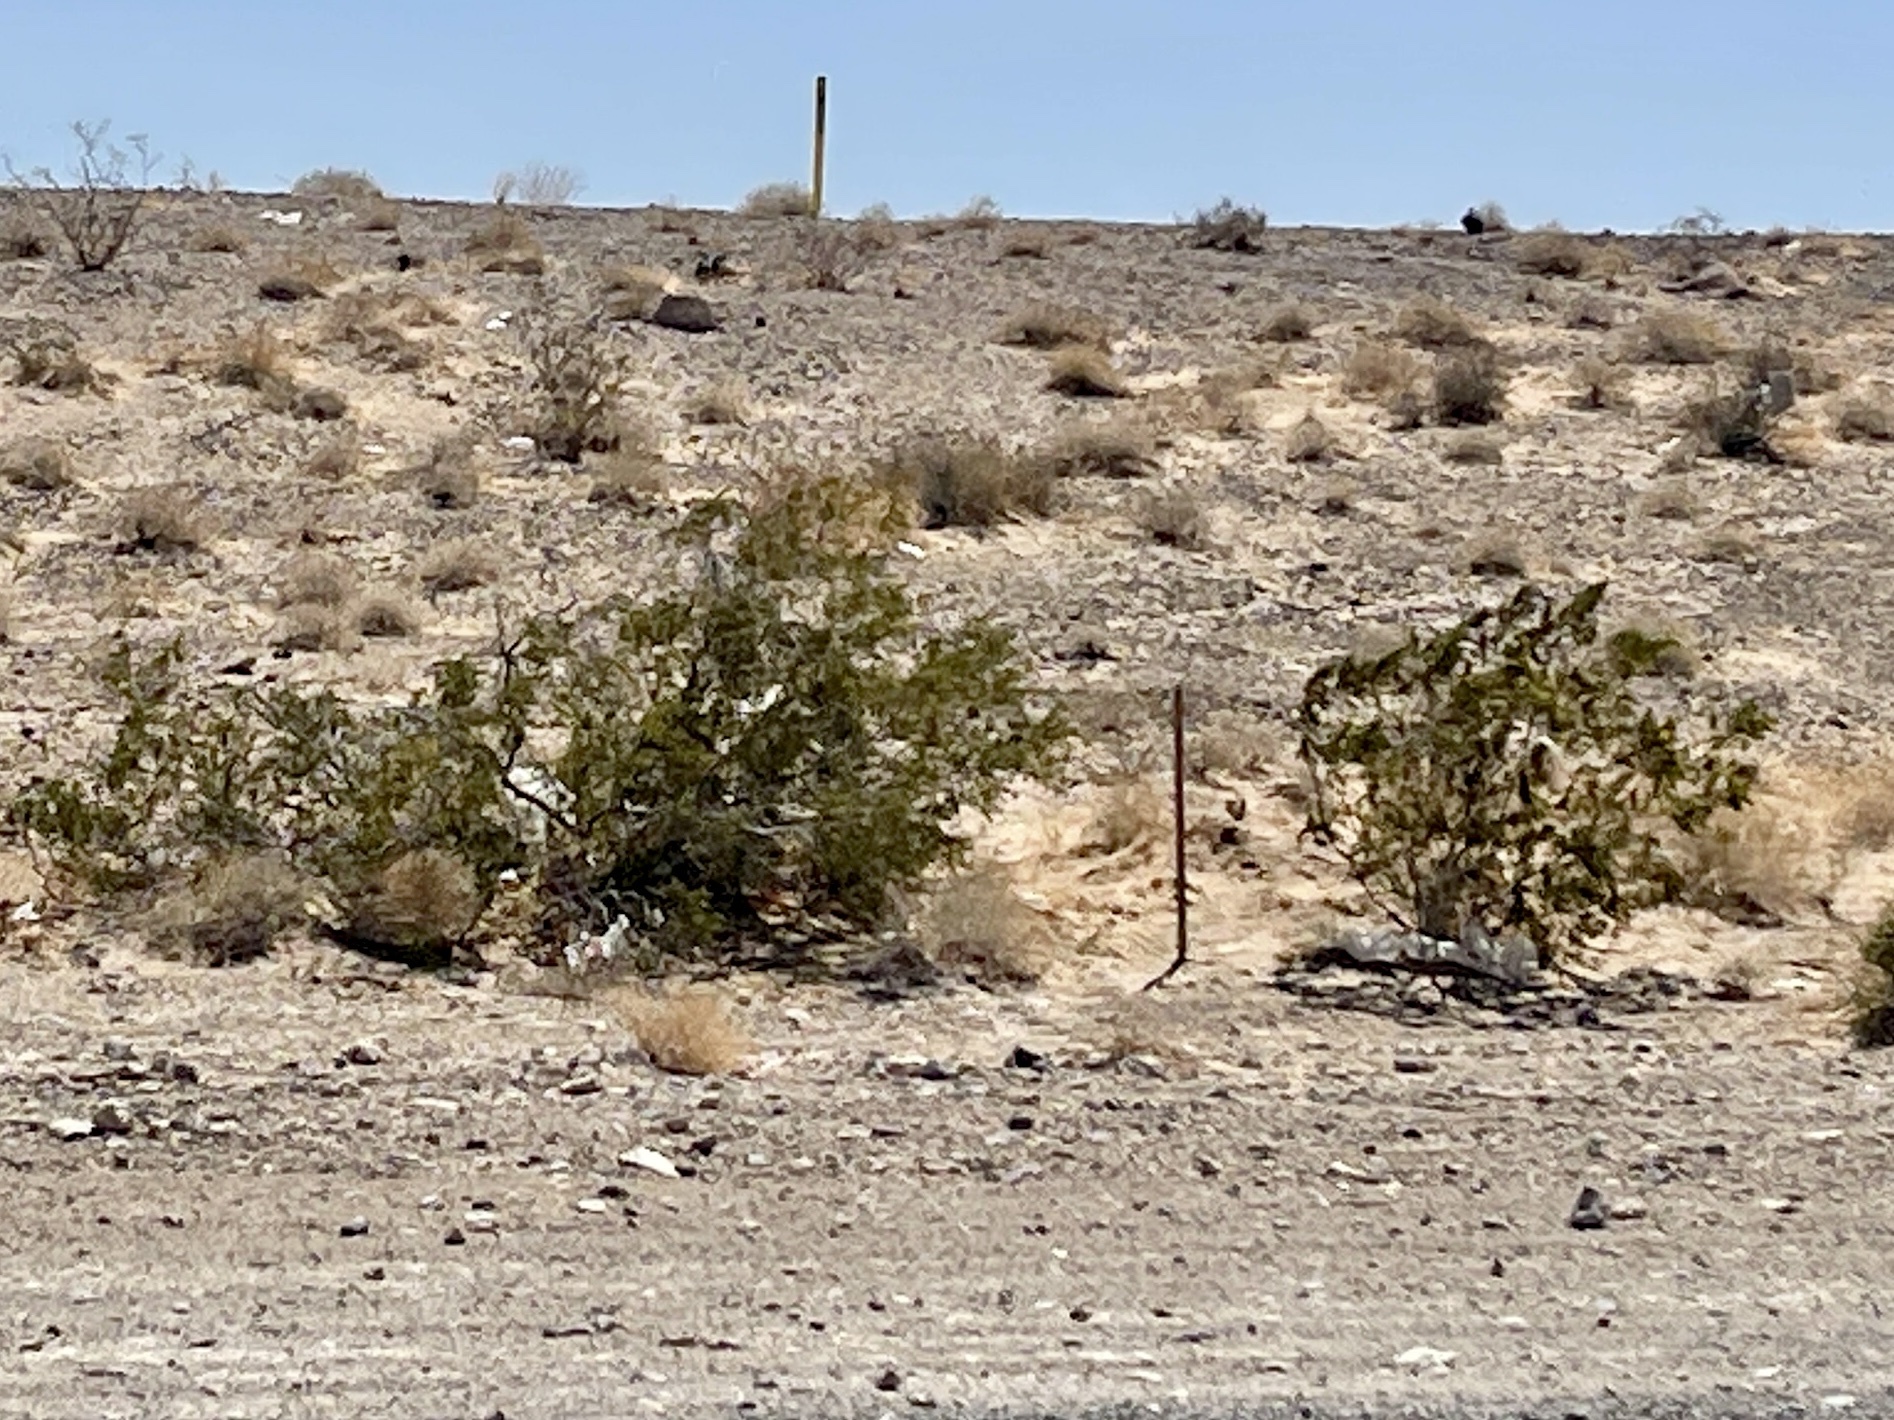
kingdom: Plantae
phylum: Tracheophyta
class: Magnoliopsida
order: Zygophyllales
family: Zygophyllaceae
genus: Larrea
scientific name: Larrea tridentata
